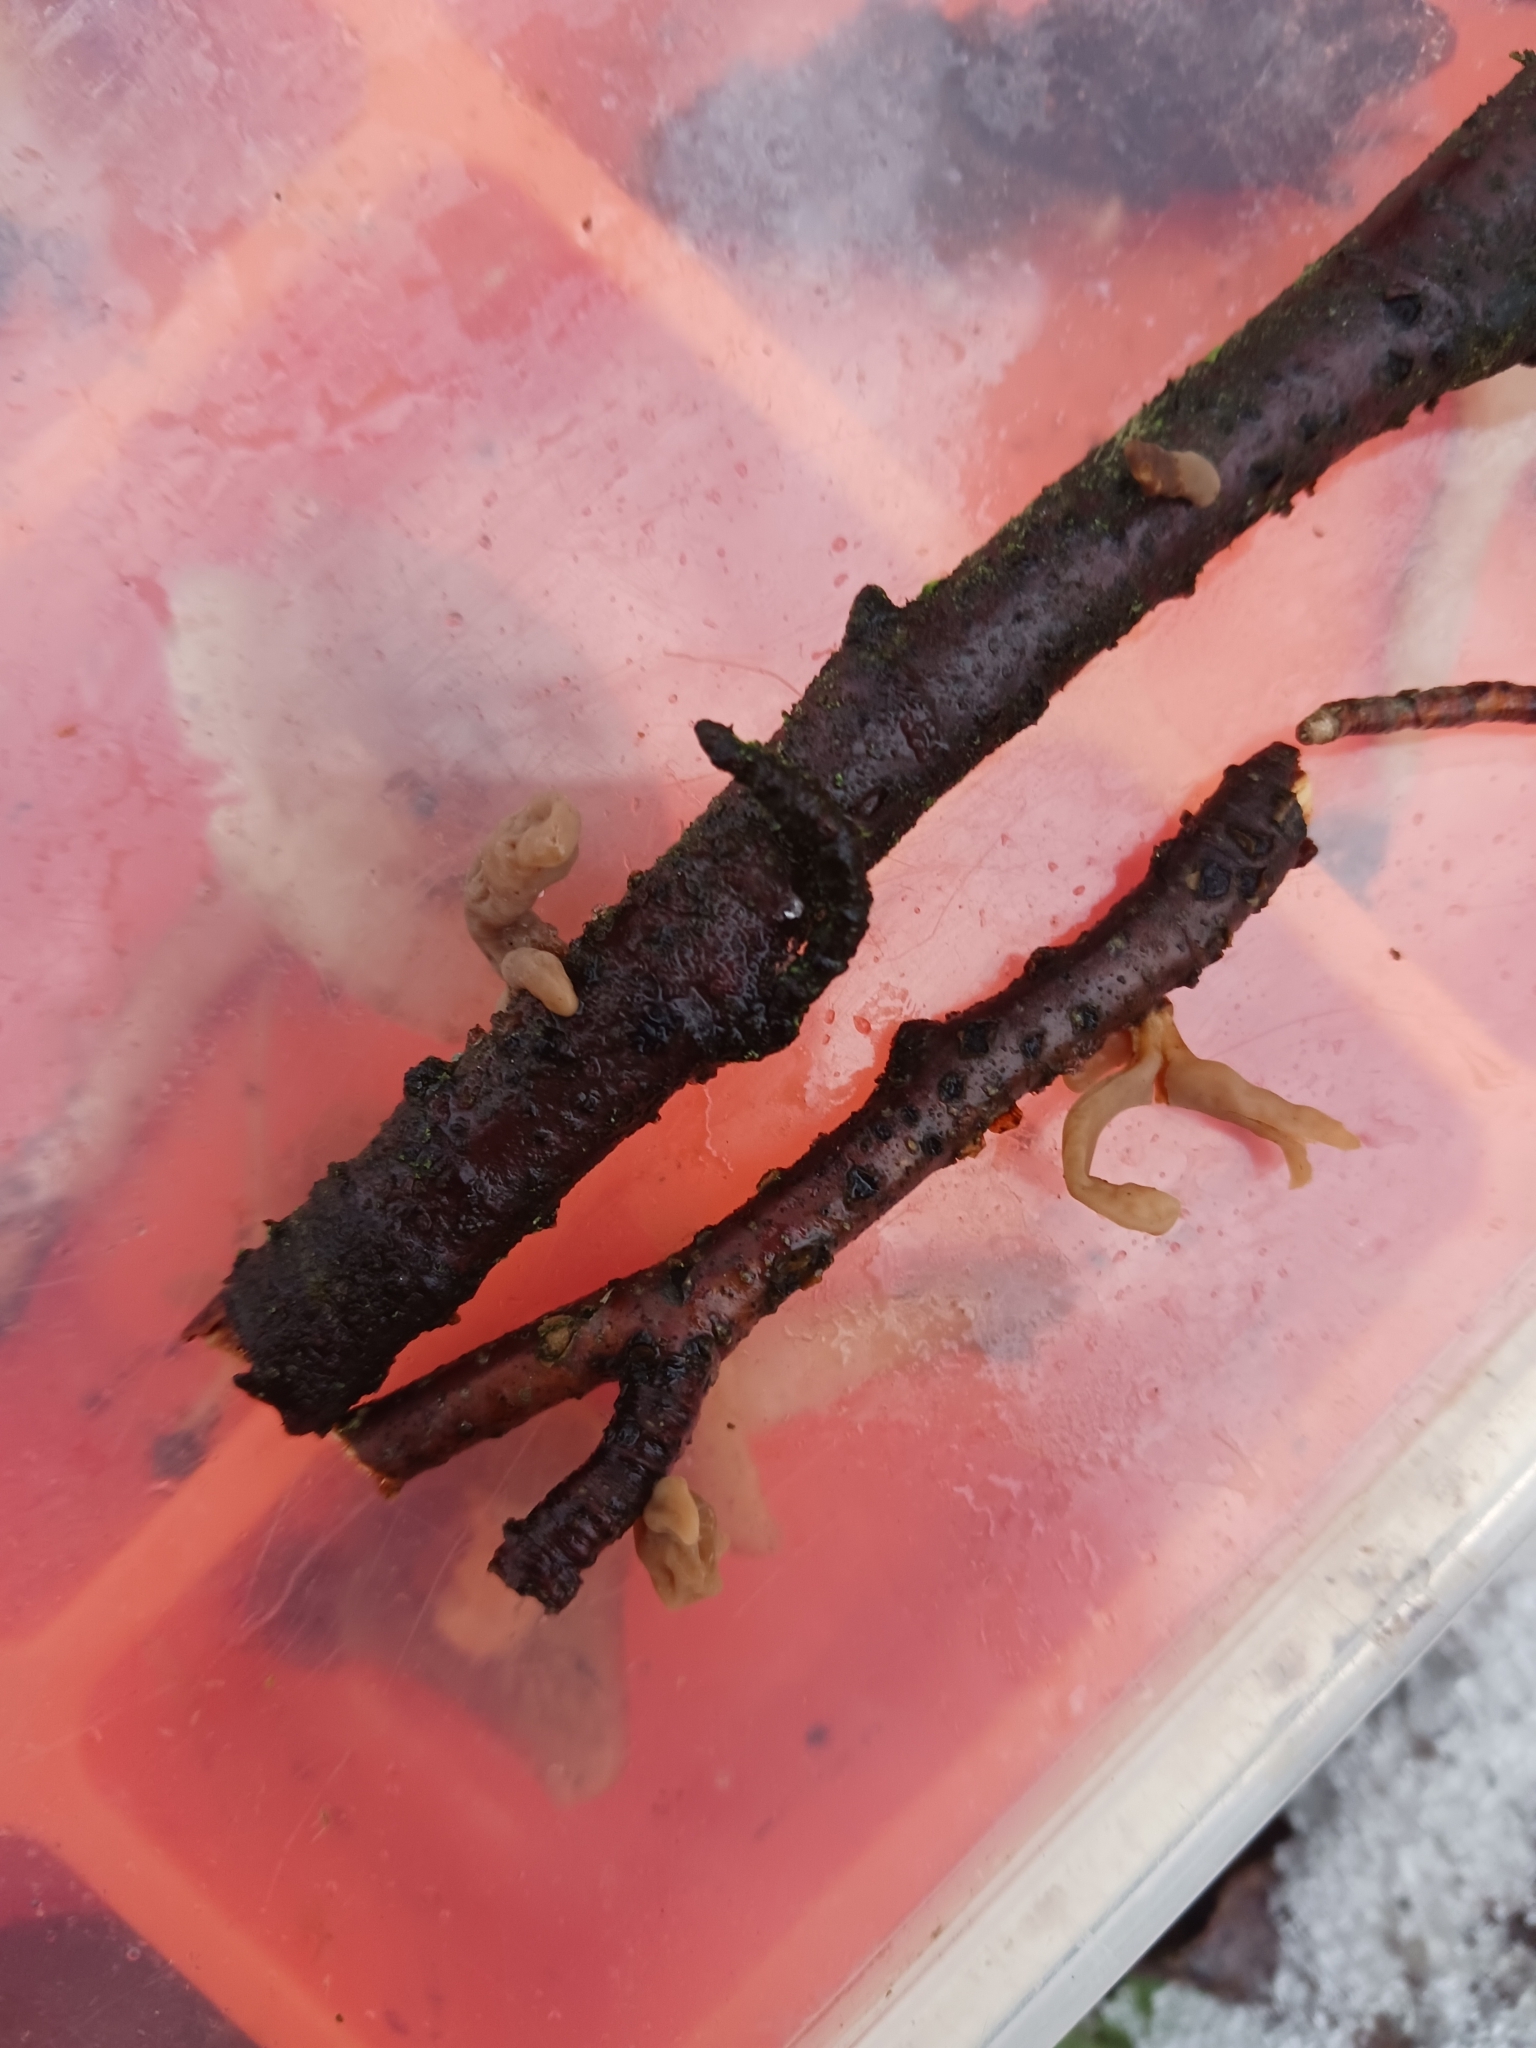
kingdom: Fungi
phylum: Basidiomycota
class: Agaricomycetes
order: Agaricales
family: Typhulaceae
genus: Typhula
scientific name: Typhula contorta
